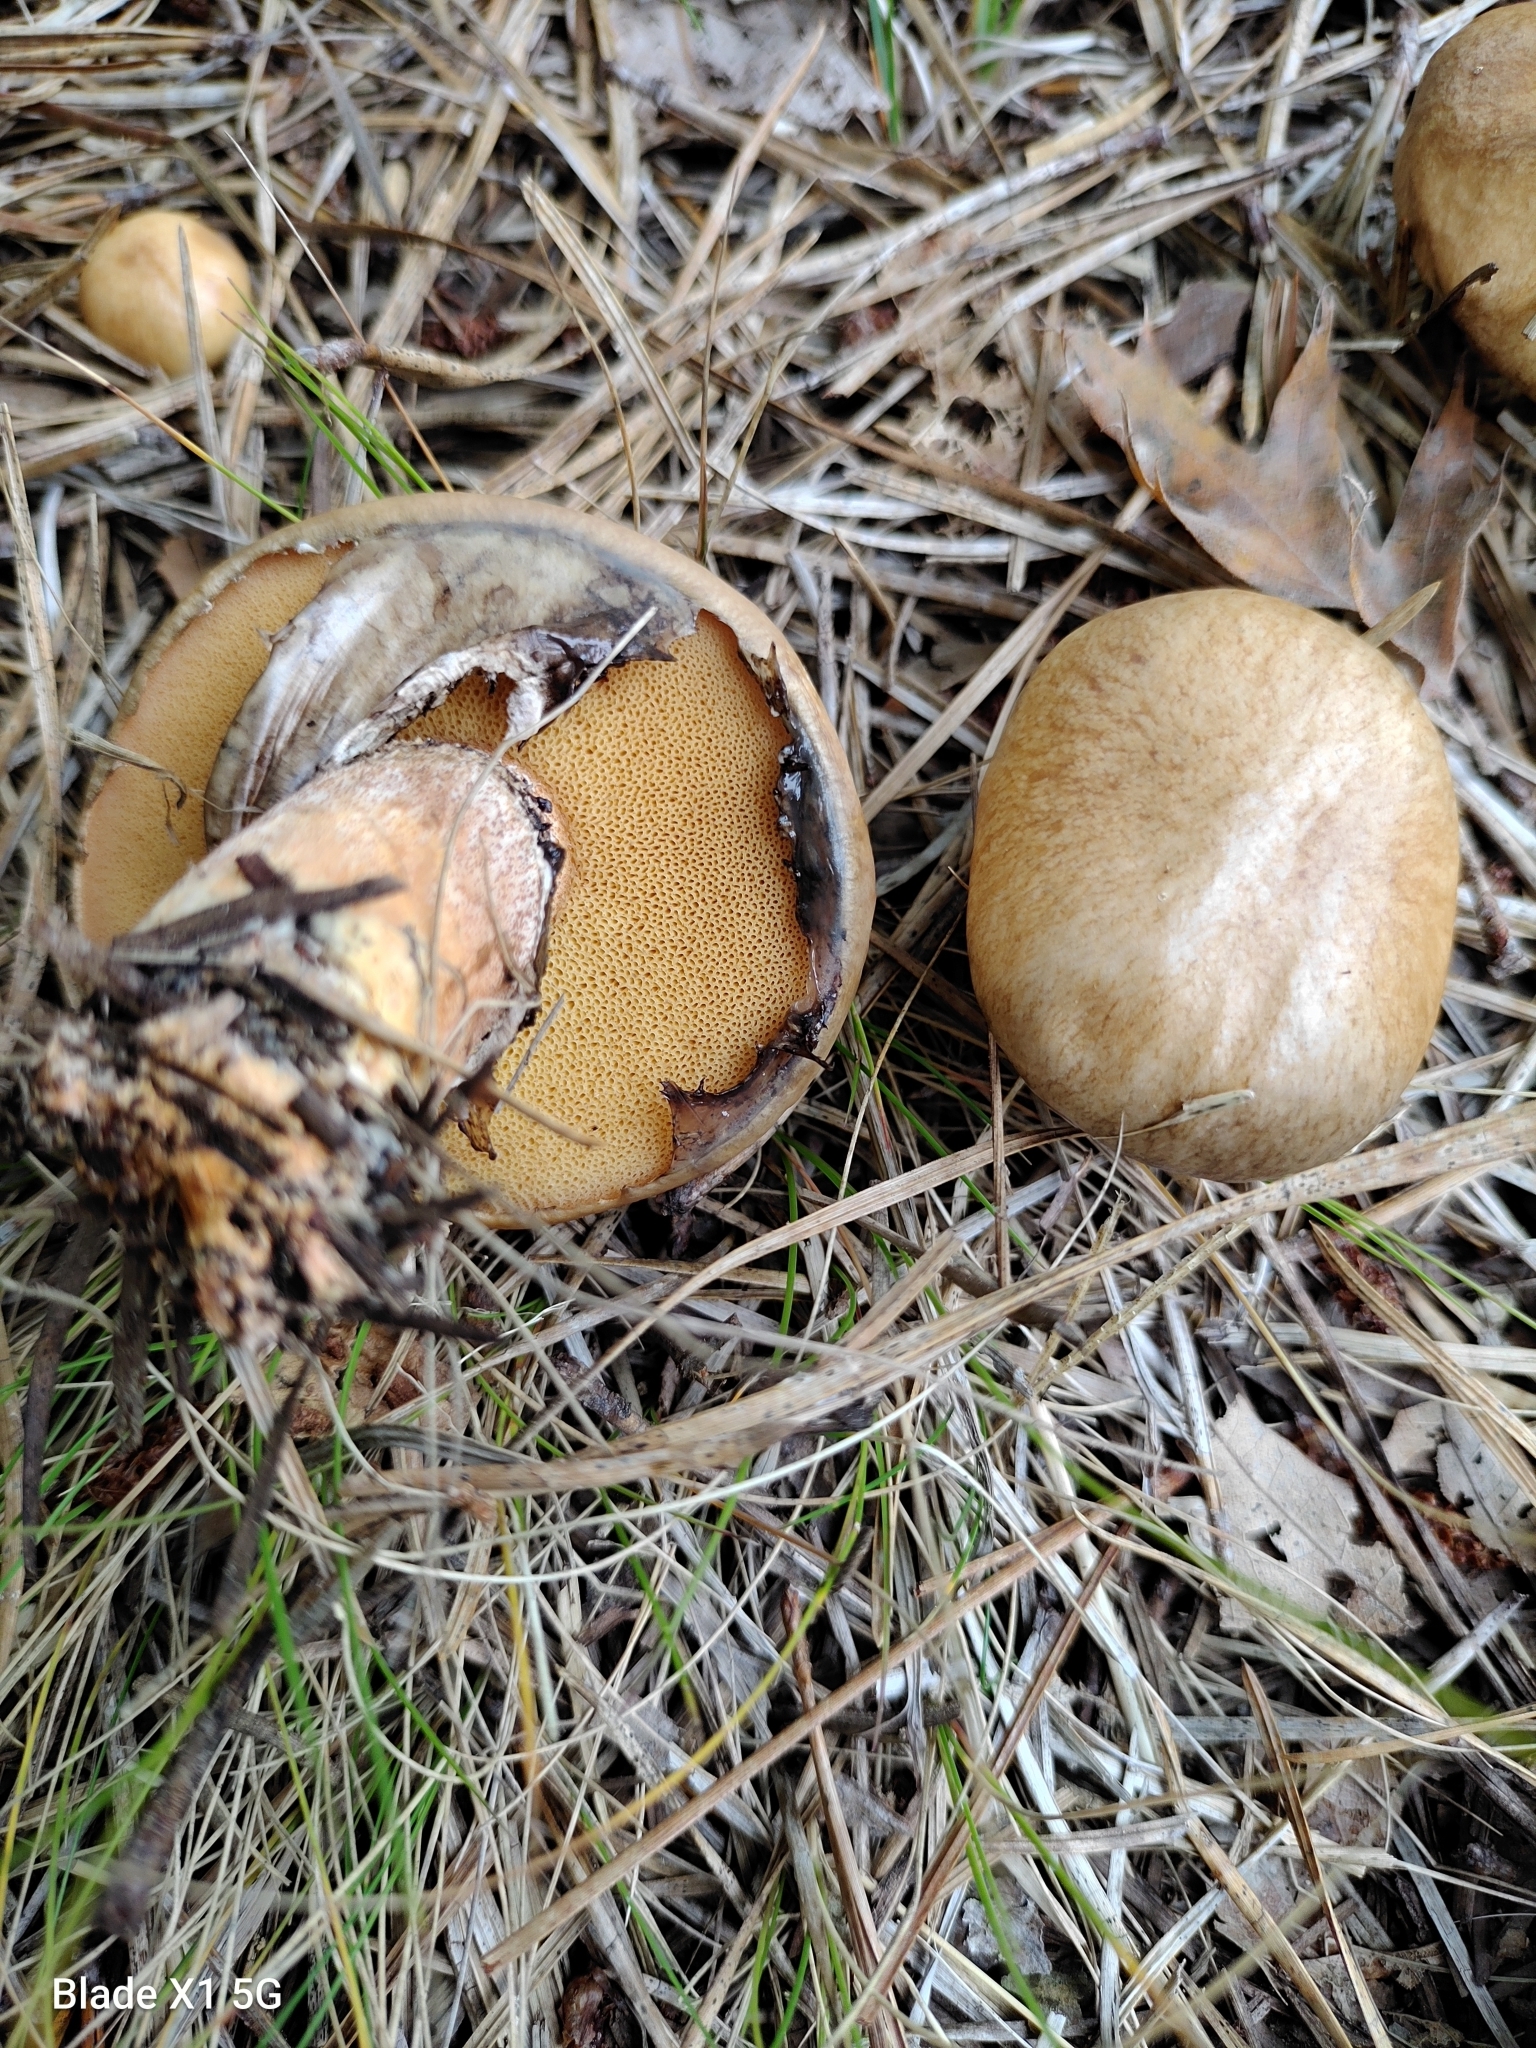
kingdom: Fungi
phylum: Basidiomycota
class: Agaricomycetes
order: Boletales
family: Suillaceae
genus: Suillus
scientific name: Suillus salmonicolor
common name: Slippery jill
